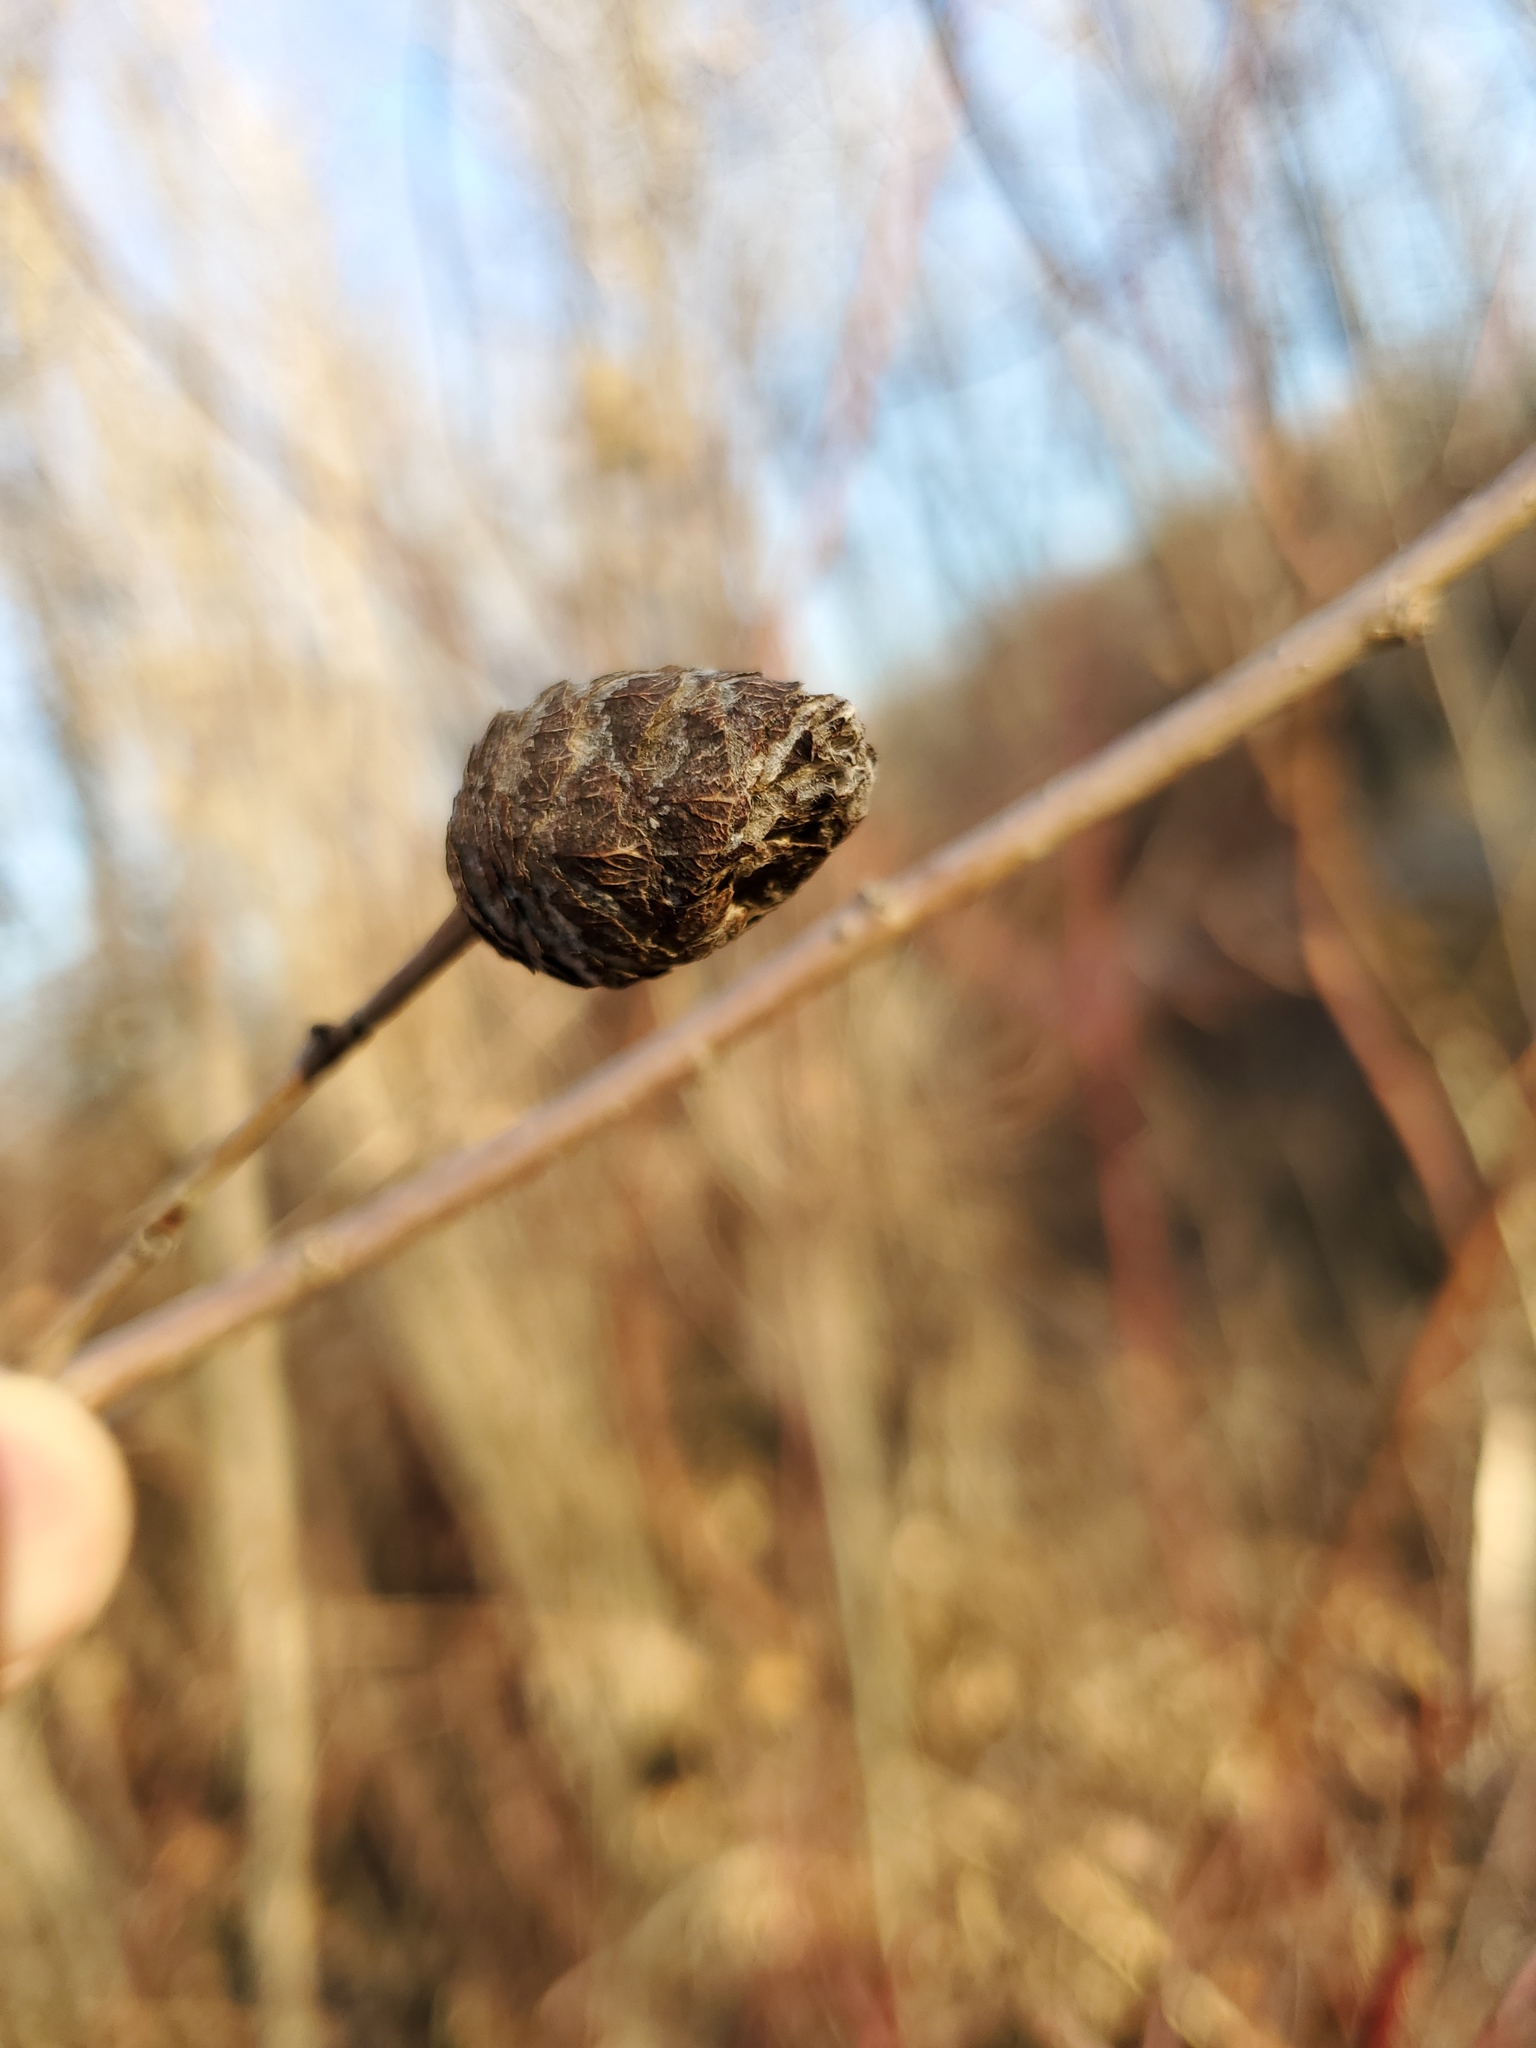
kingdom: Animalia
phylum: Arthropoda
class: Insecta
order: Diptera
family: Cecidomyiidae
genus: Rabdophaga
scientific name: Rabdophaga strobiloides
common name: Willow pinecone gall midge
